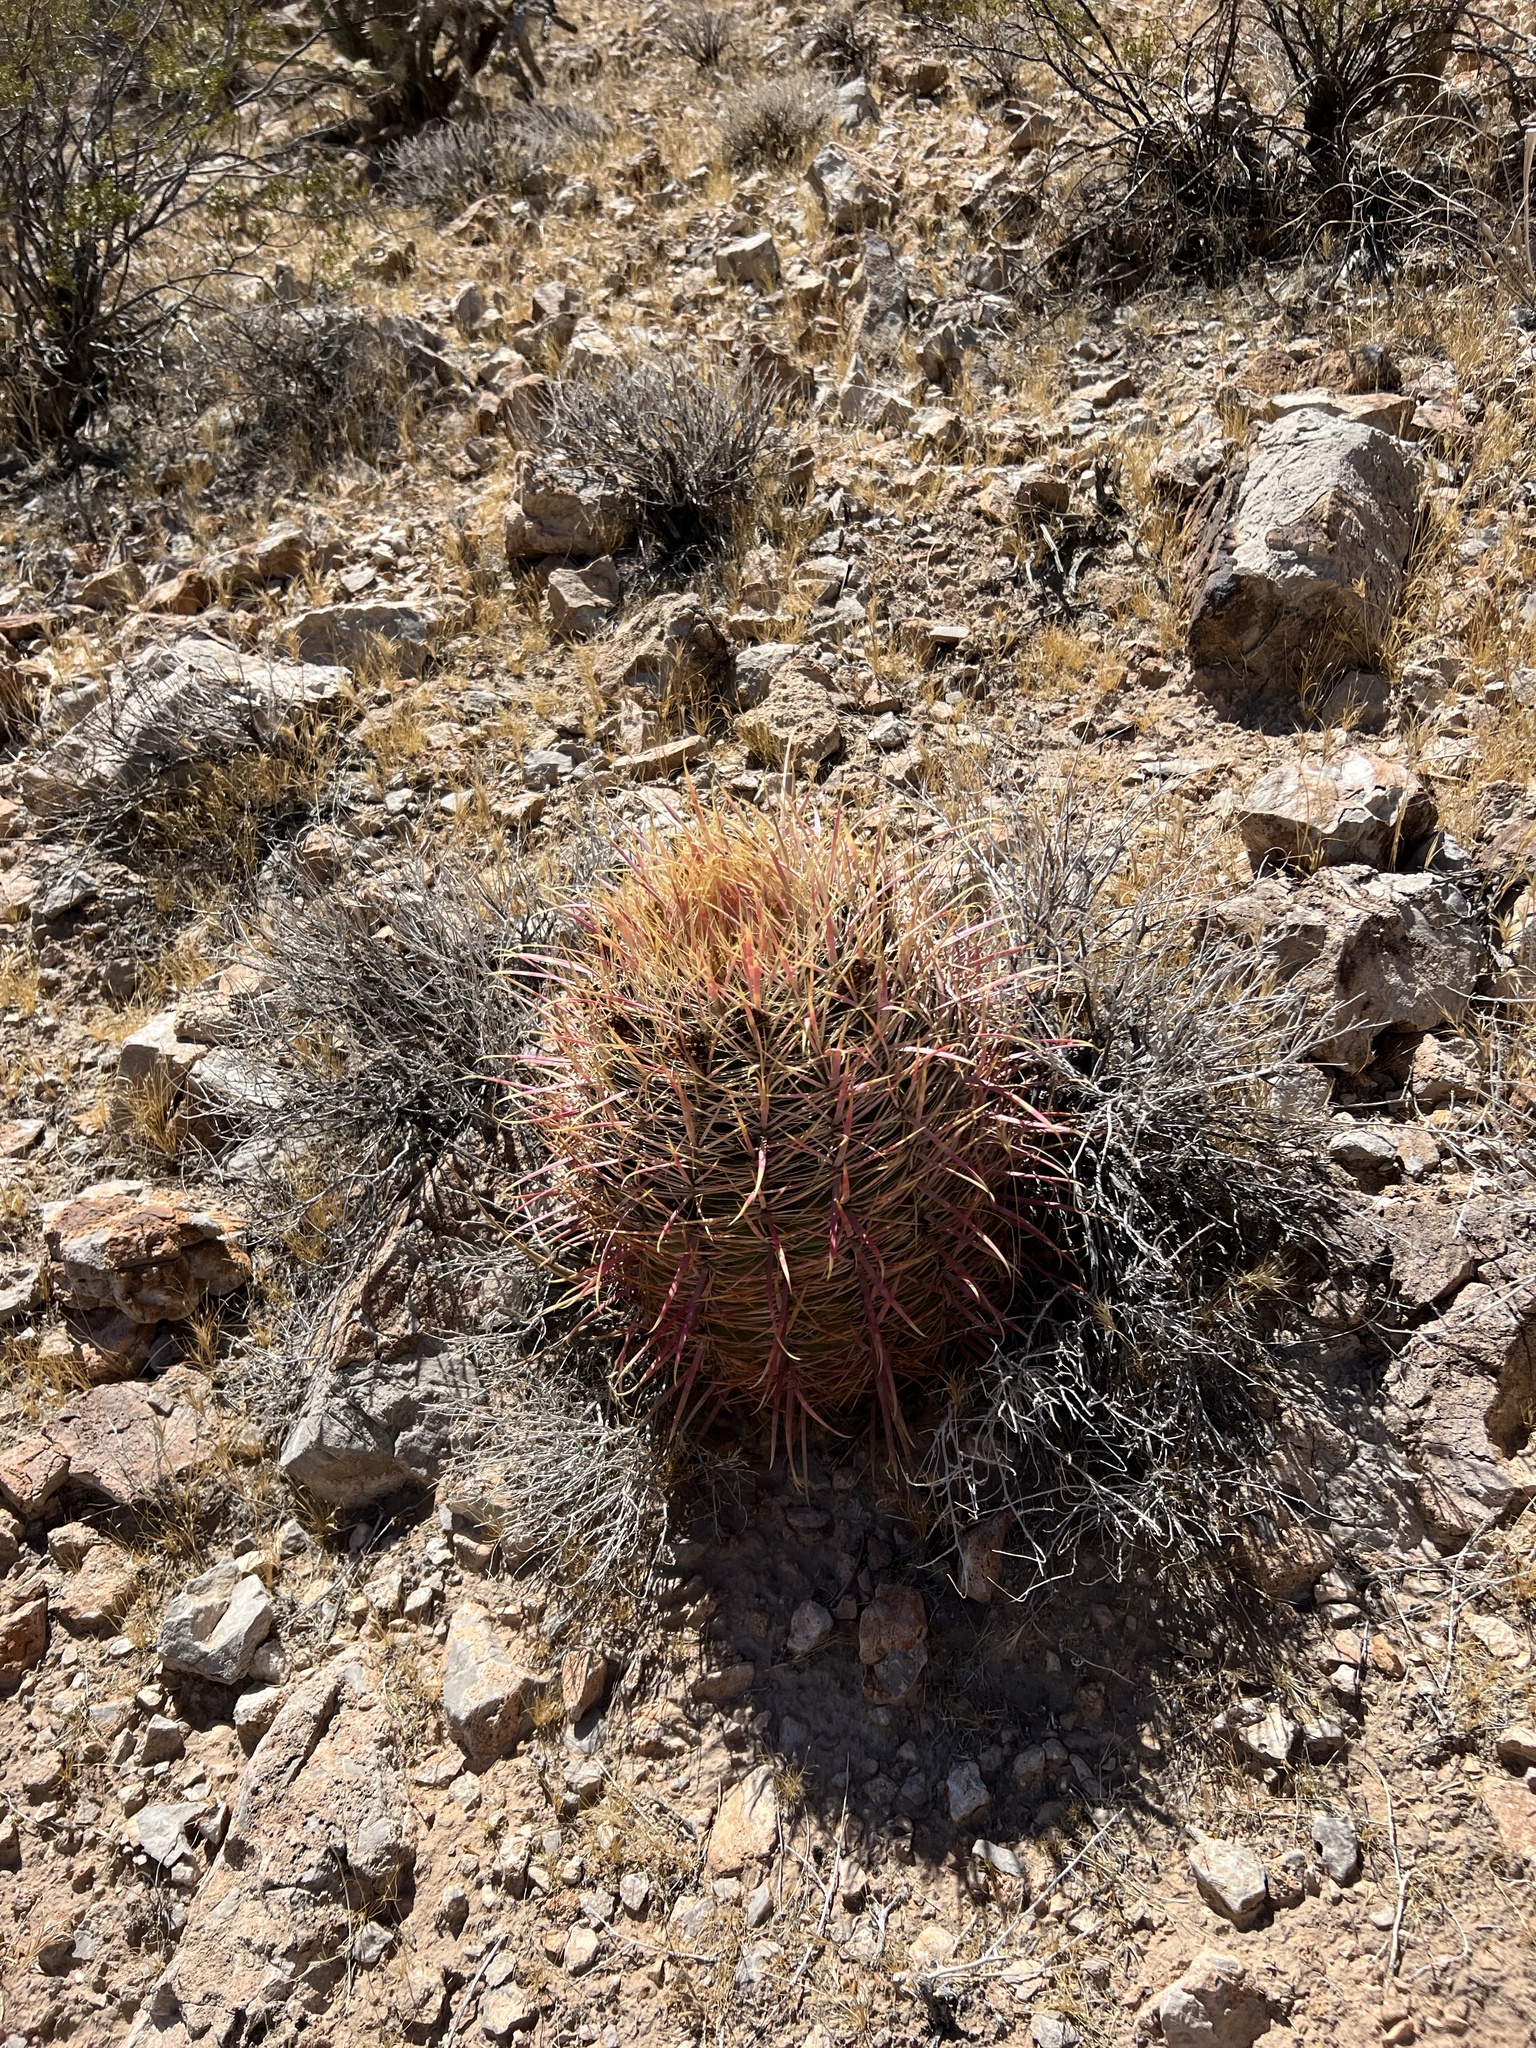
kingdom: Plantae
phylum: Tracheophyta
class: Magnoliopsida
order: Caryophyllales
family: Cactaceae
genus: Ferocactus
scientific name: Ferocactus cylindraceus
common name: California barrel cactus
